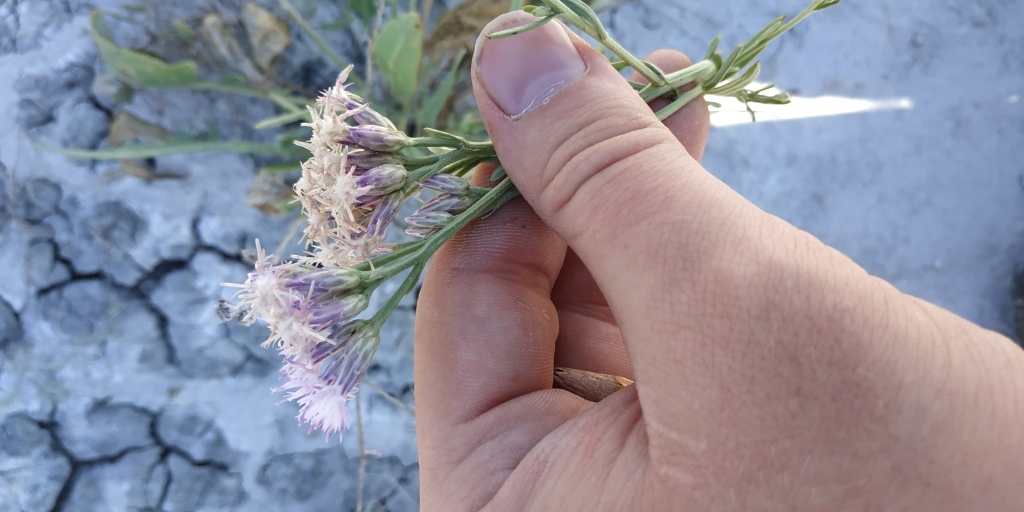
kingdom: Plantae
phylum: Tracheophyta
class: Magnoliopsida
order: Asterales
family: Asteraceae
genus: Saussurea
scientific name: Saussurea amara
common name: Alberta sawwort
